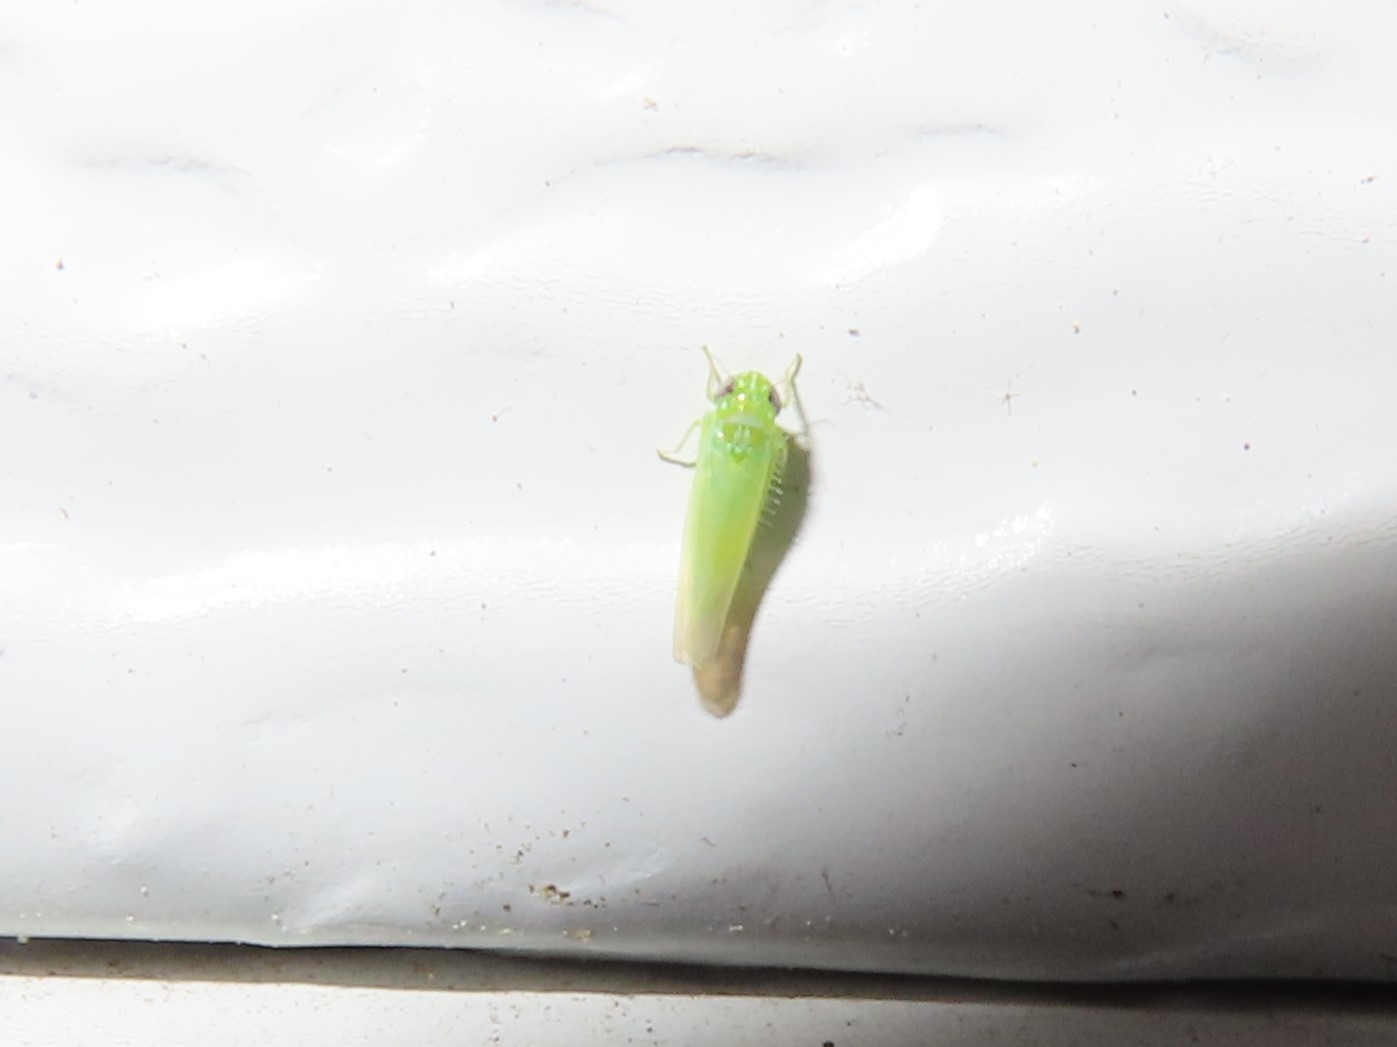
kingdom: Animalia
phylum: Arthropoda
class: Insecta
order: Hemiptera
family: Cicadellidae
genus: Empoasca
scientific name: Empoasca fabae
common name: Potato leafhopper
